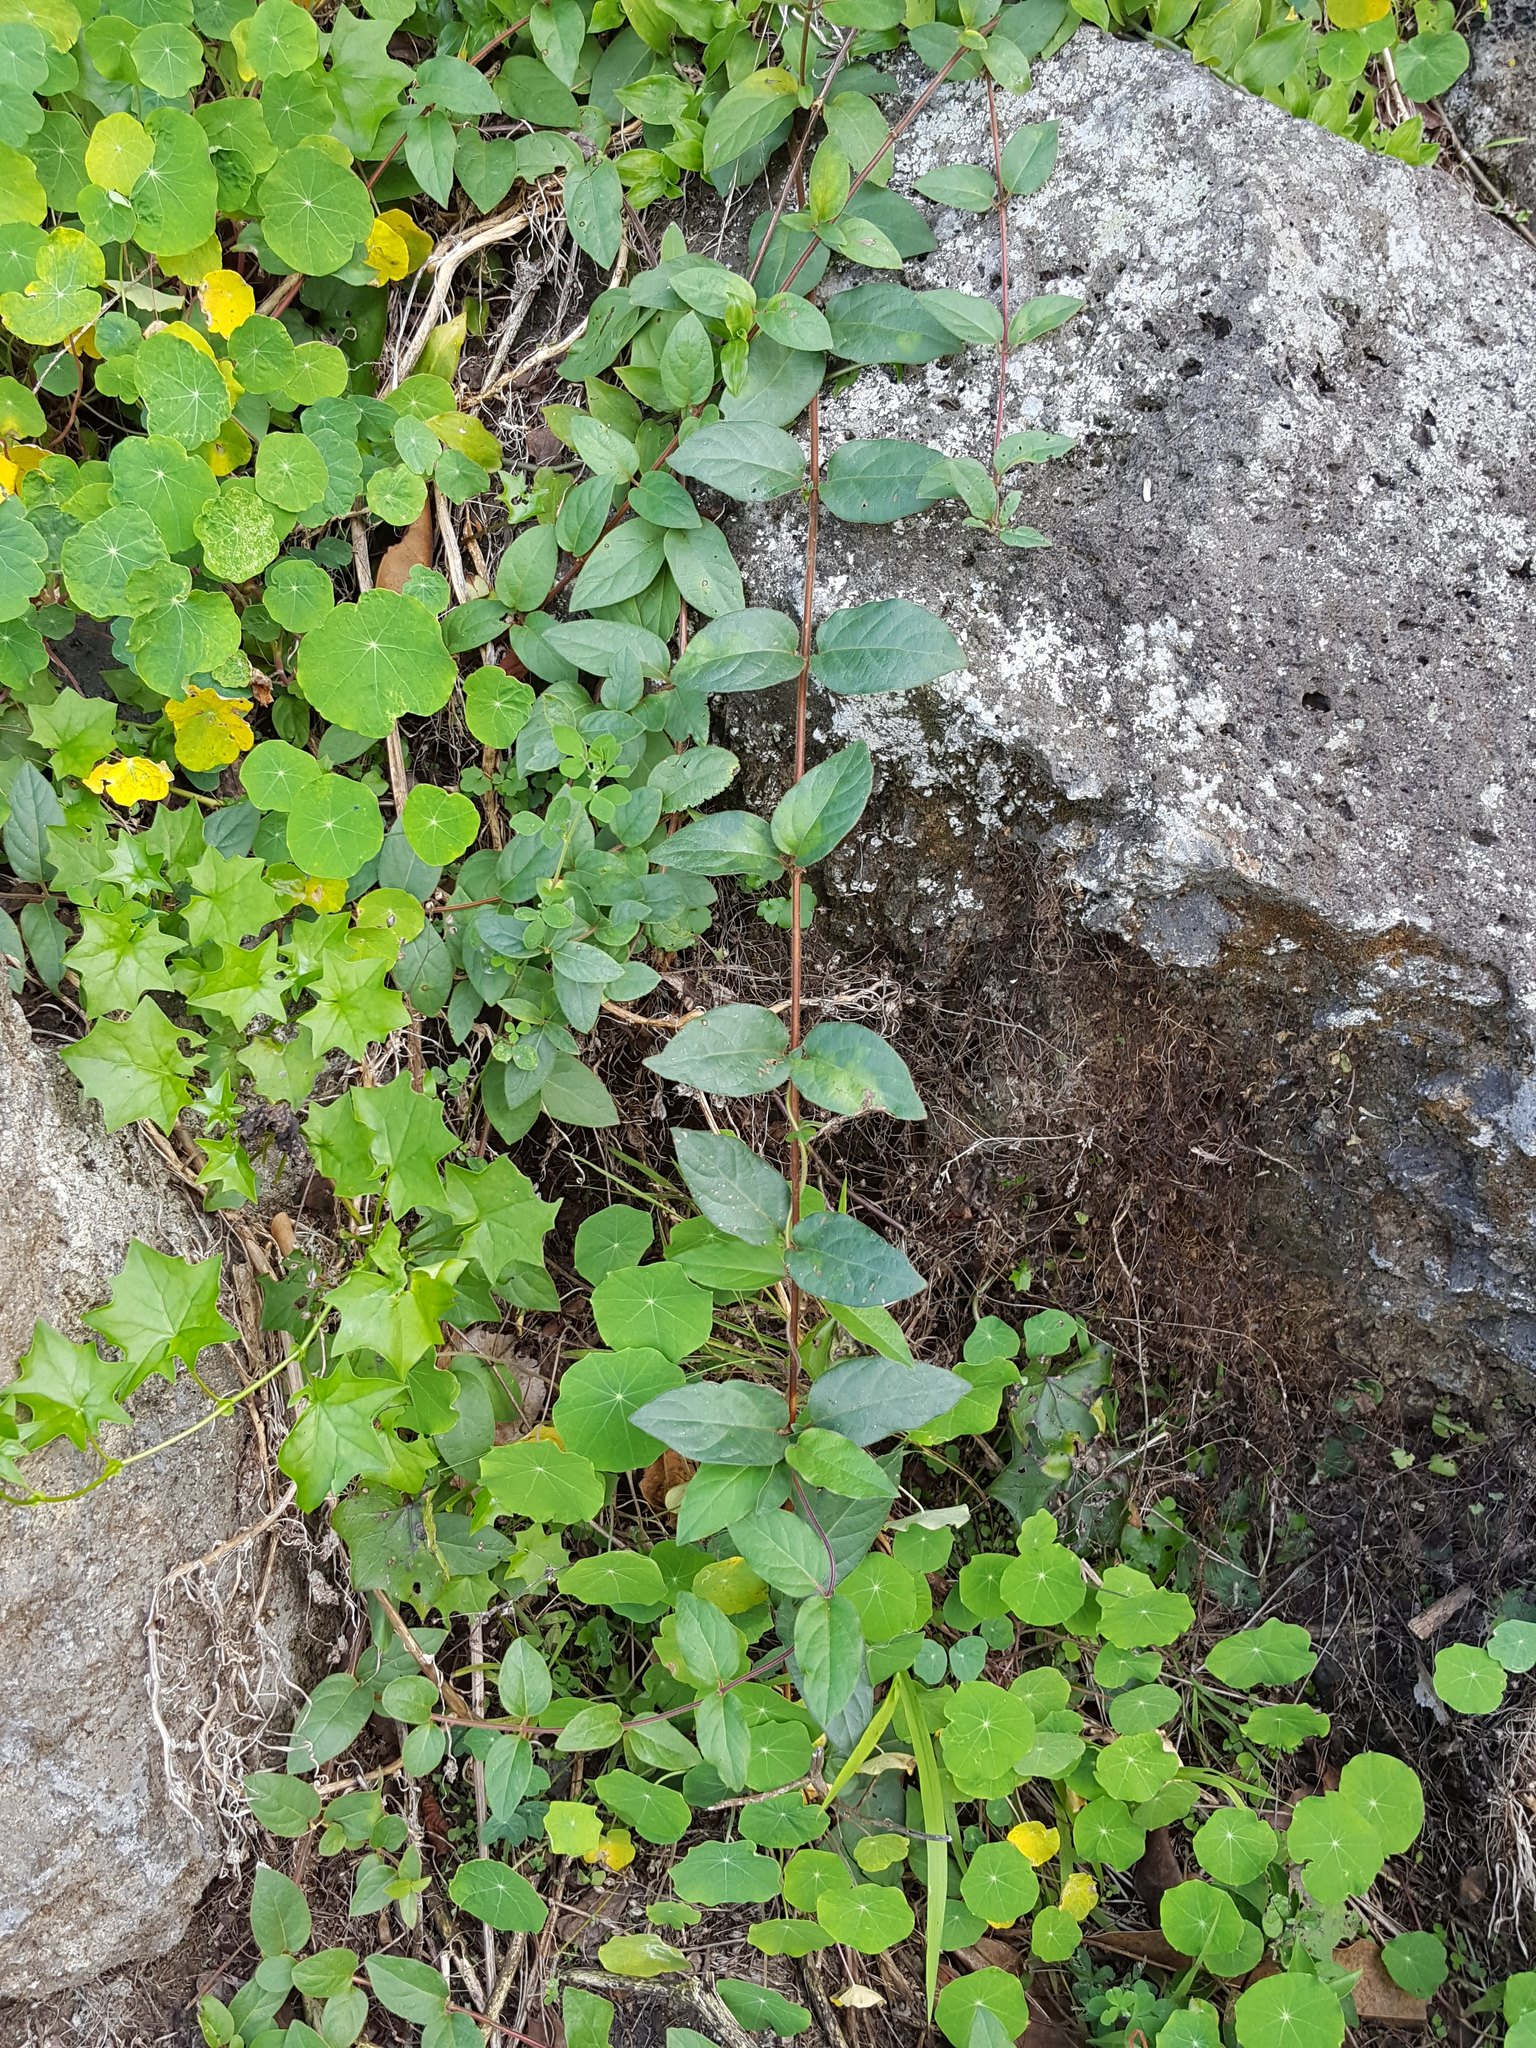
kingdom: Plantae
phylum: Tracheophyta
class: Magnoliopsida
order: Dipsacales
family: Caprifoliaceae
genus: Lonicera
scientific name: Lonicera japonica
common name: Japanese honeysuckle
